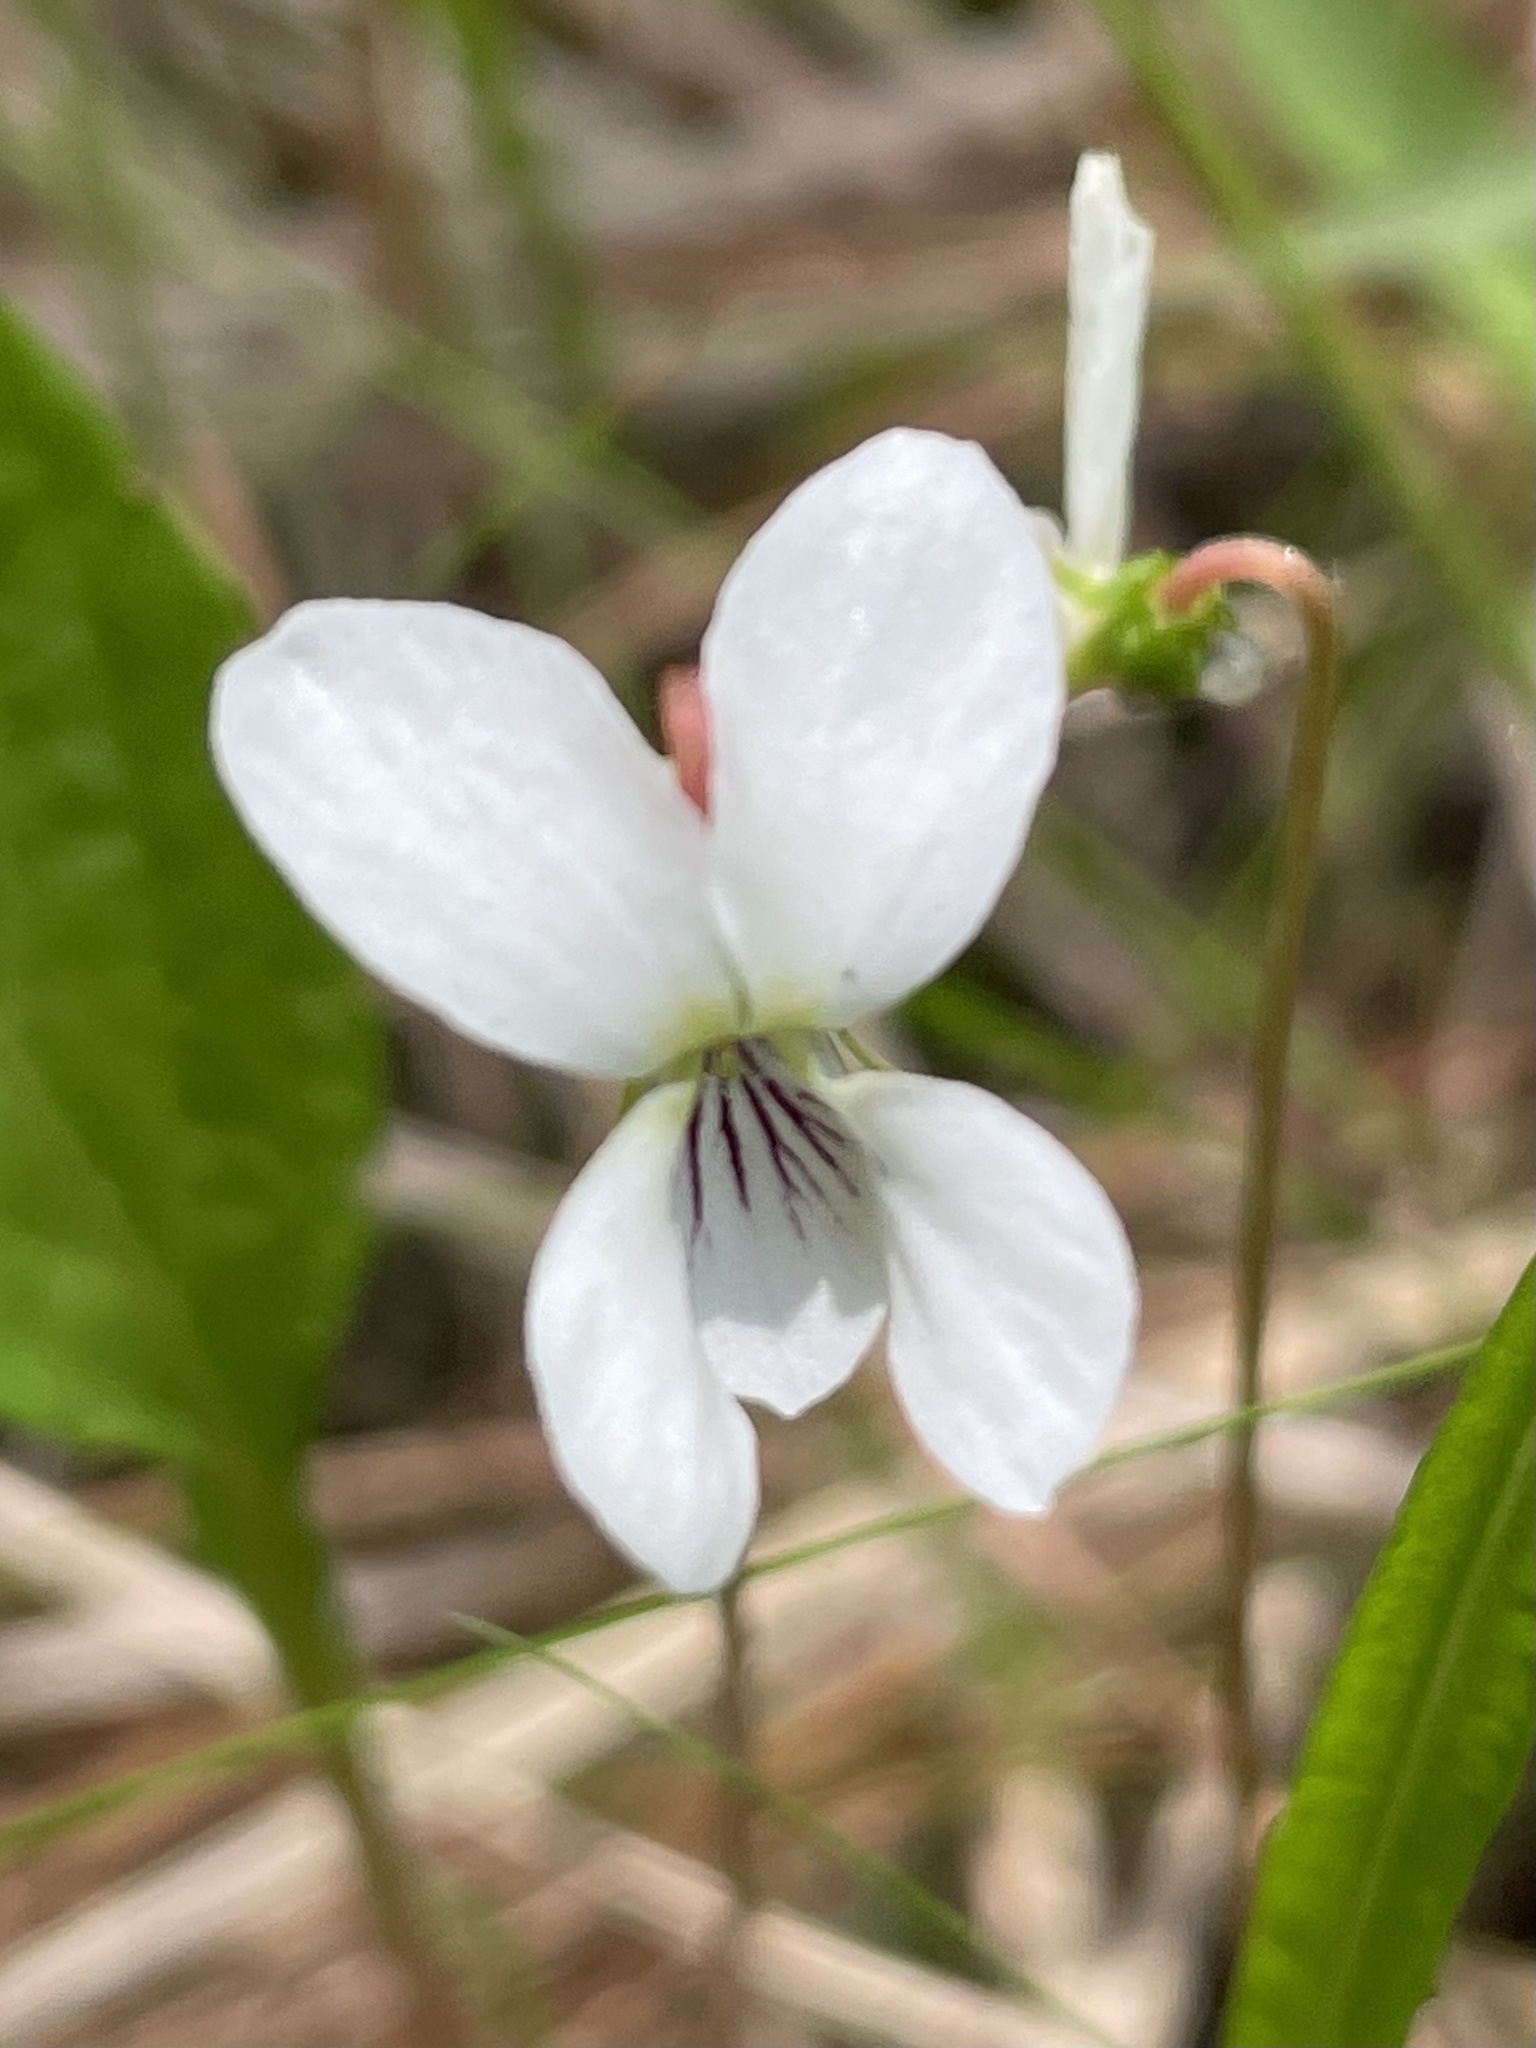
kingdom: Plantae
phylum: Tracheophyta
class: Magnoliopsida
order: Malpighiales
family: Violaceae
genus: Viola
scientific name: Viola primulifolia
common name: Primrose-leaf violet
